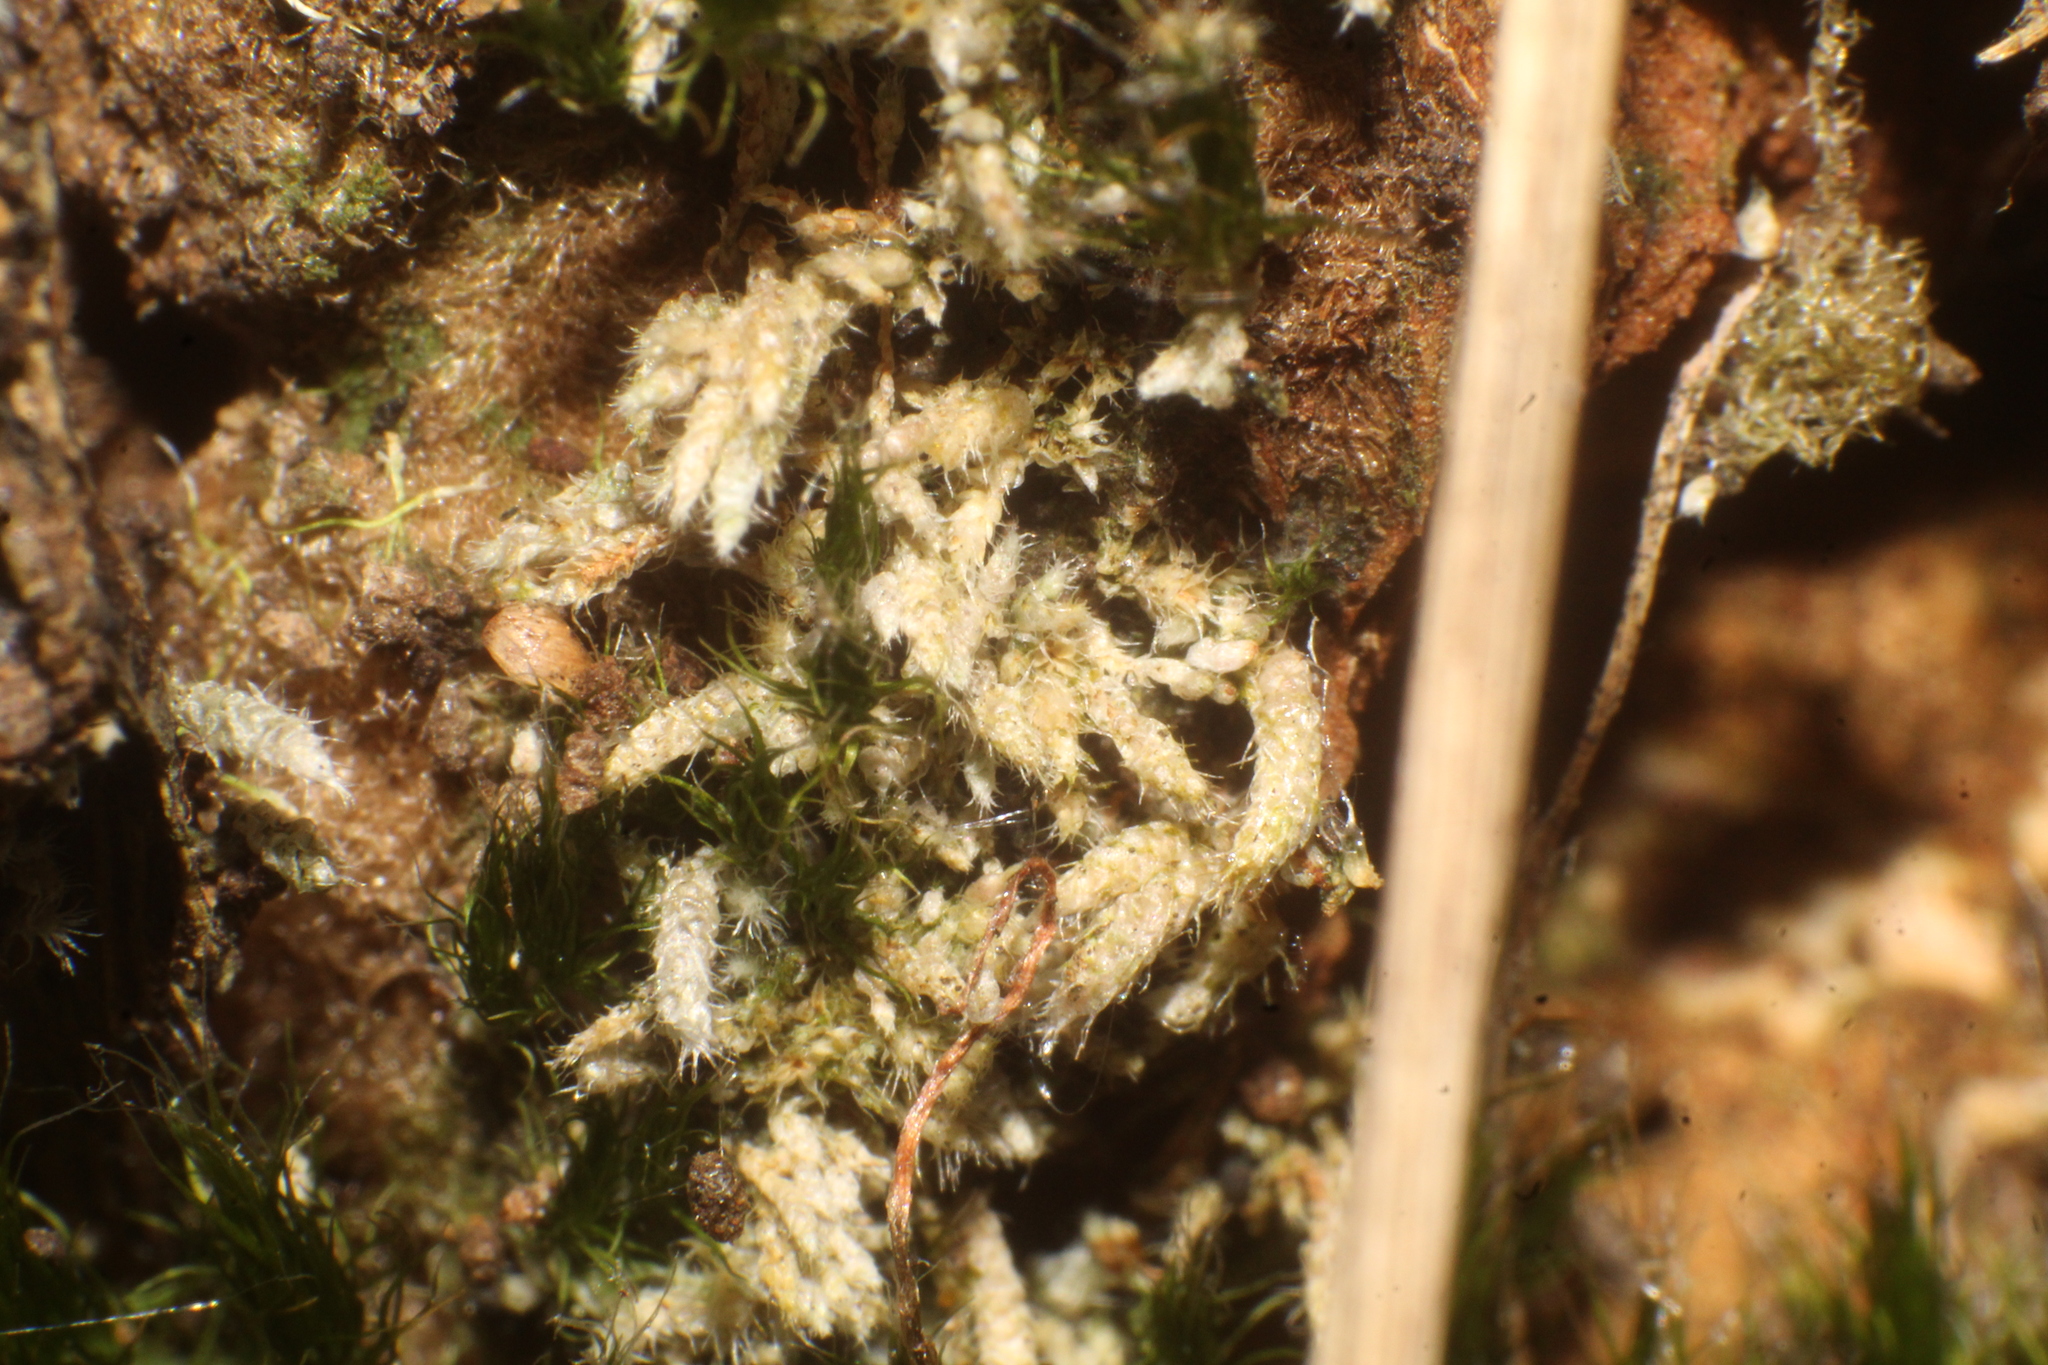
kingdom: Plantae
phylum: Bryophyta
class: Bryopsida
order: Bryales
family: Bryaceae
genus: Bryum
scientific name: Bryum lanatum
